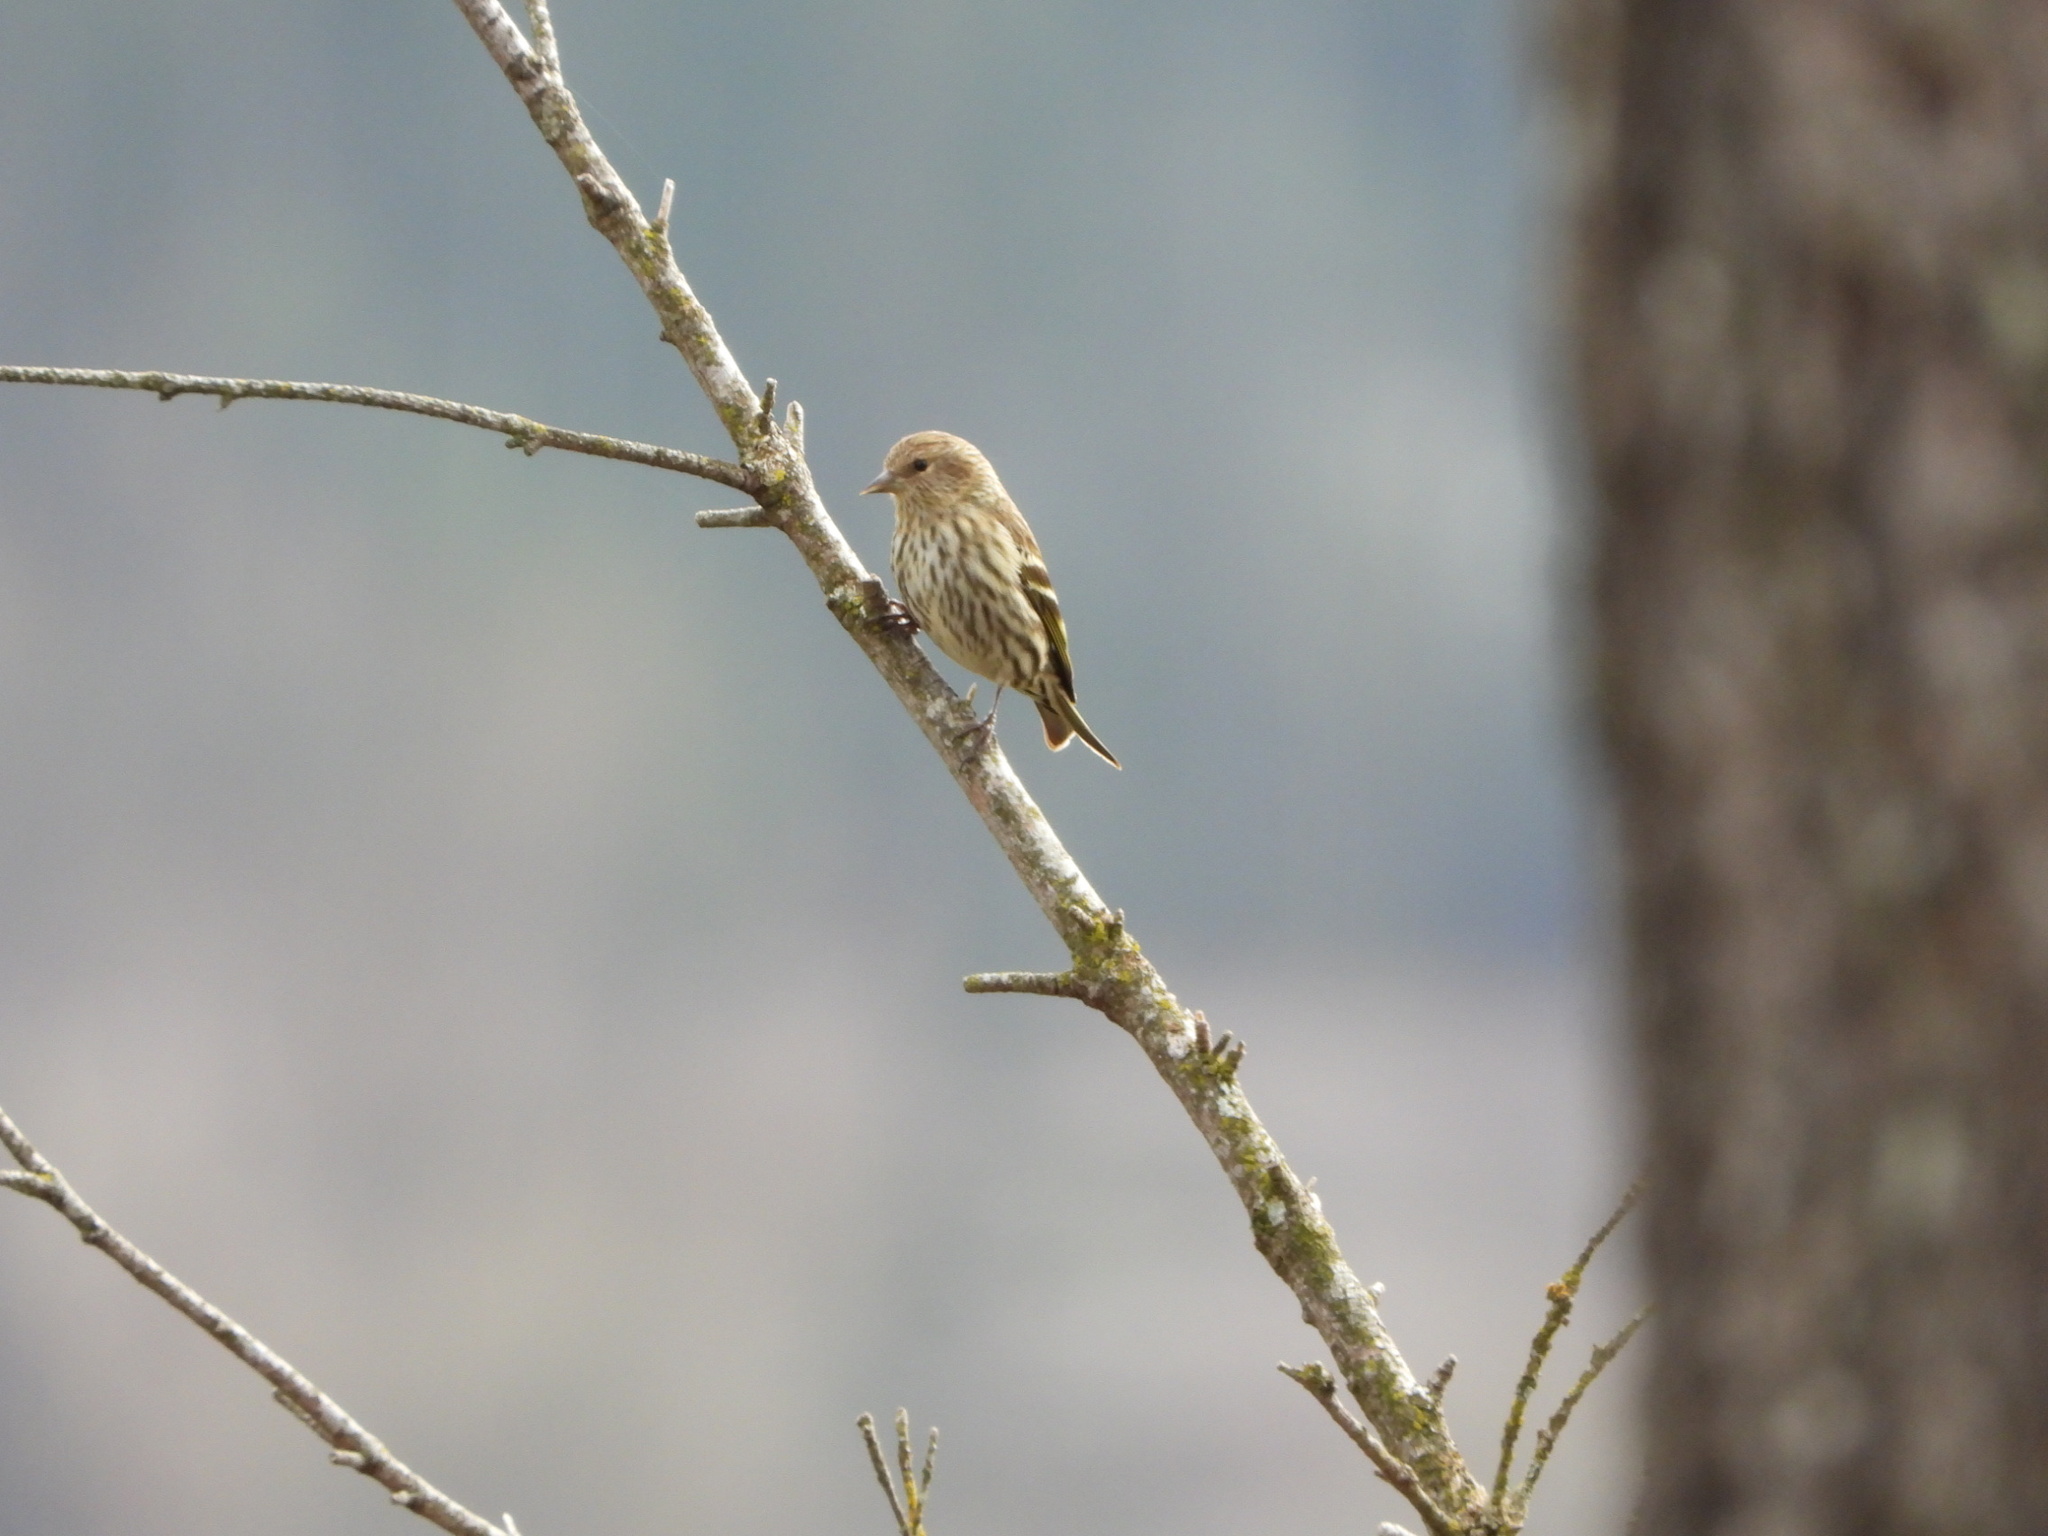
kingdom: Animalia
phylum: Chordata
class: Aves
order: Passeriformes
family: Fringillidae
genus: Spinus
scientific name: Spinus pinus
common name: Pine siskin
